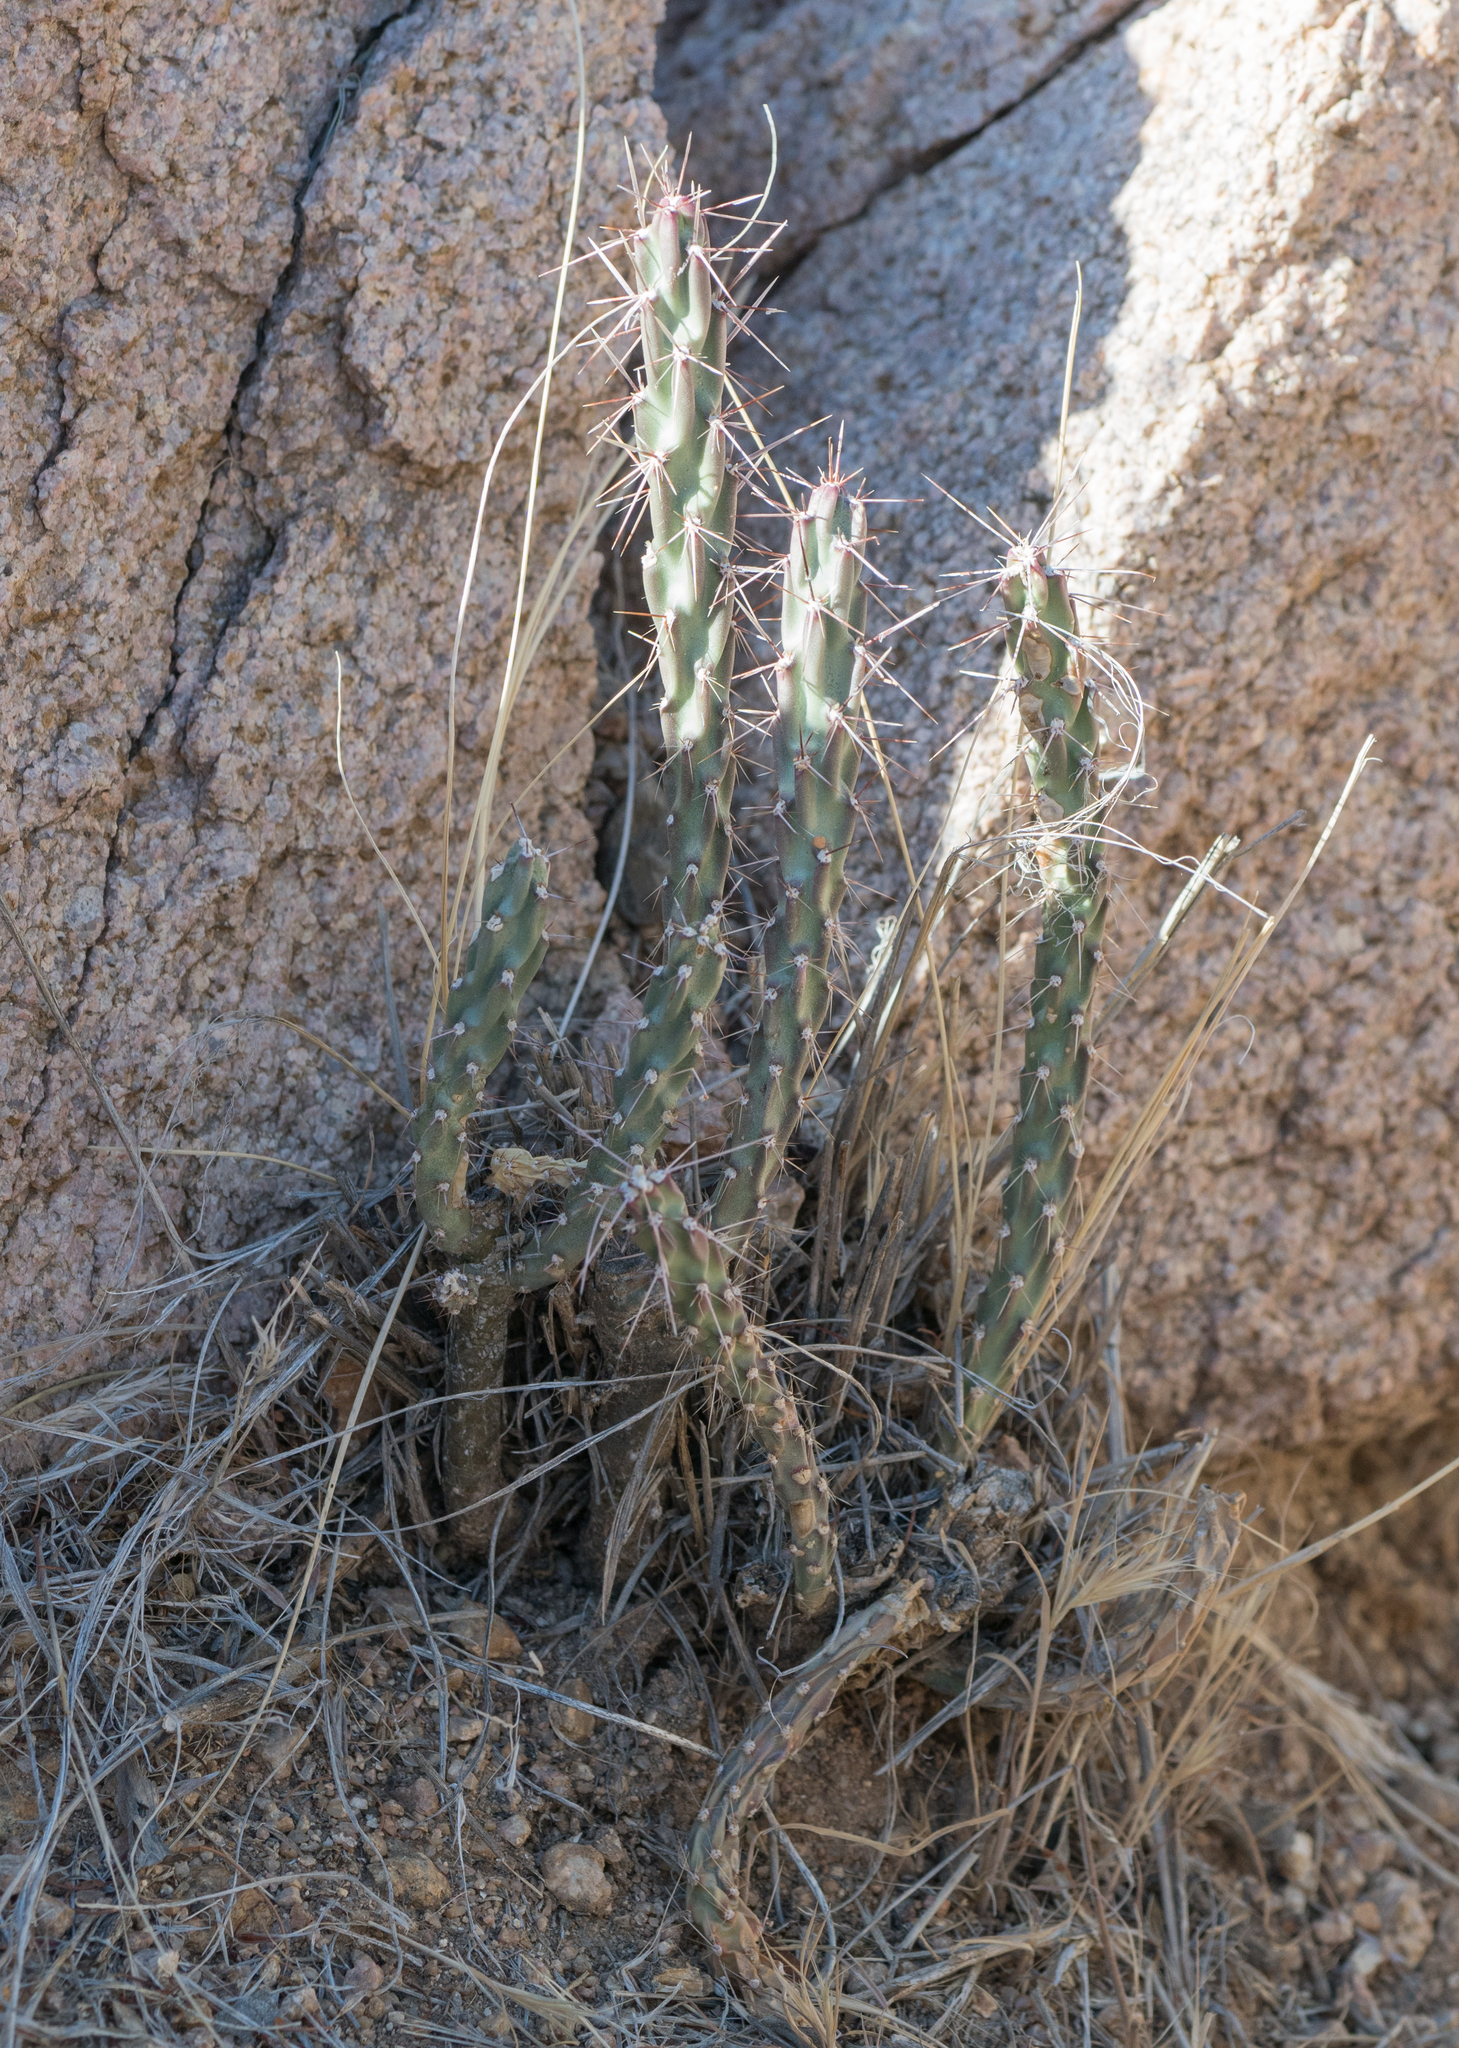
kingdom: Plantae
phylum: Tracheophyta
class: Magnoliopsida
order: Caryophyllales
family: Cactaceae
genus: Cylindropuntia
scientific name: Cylindropuntia acanthocarpa
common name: Buckhorn cholla
